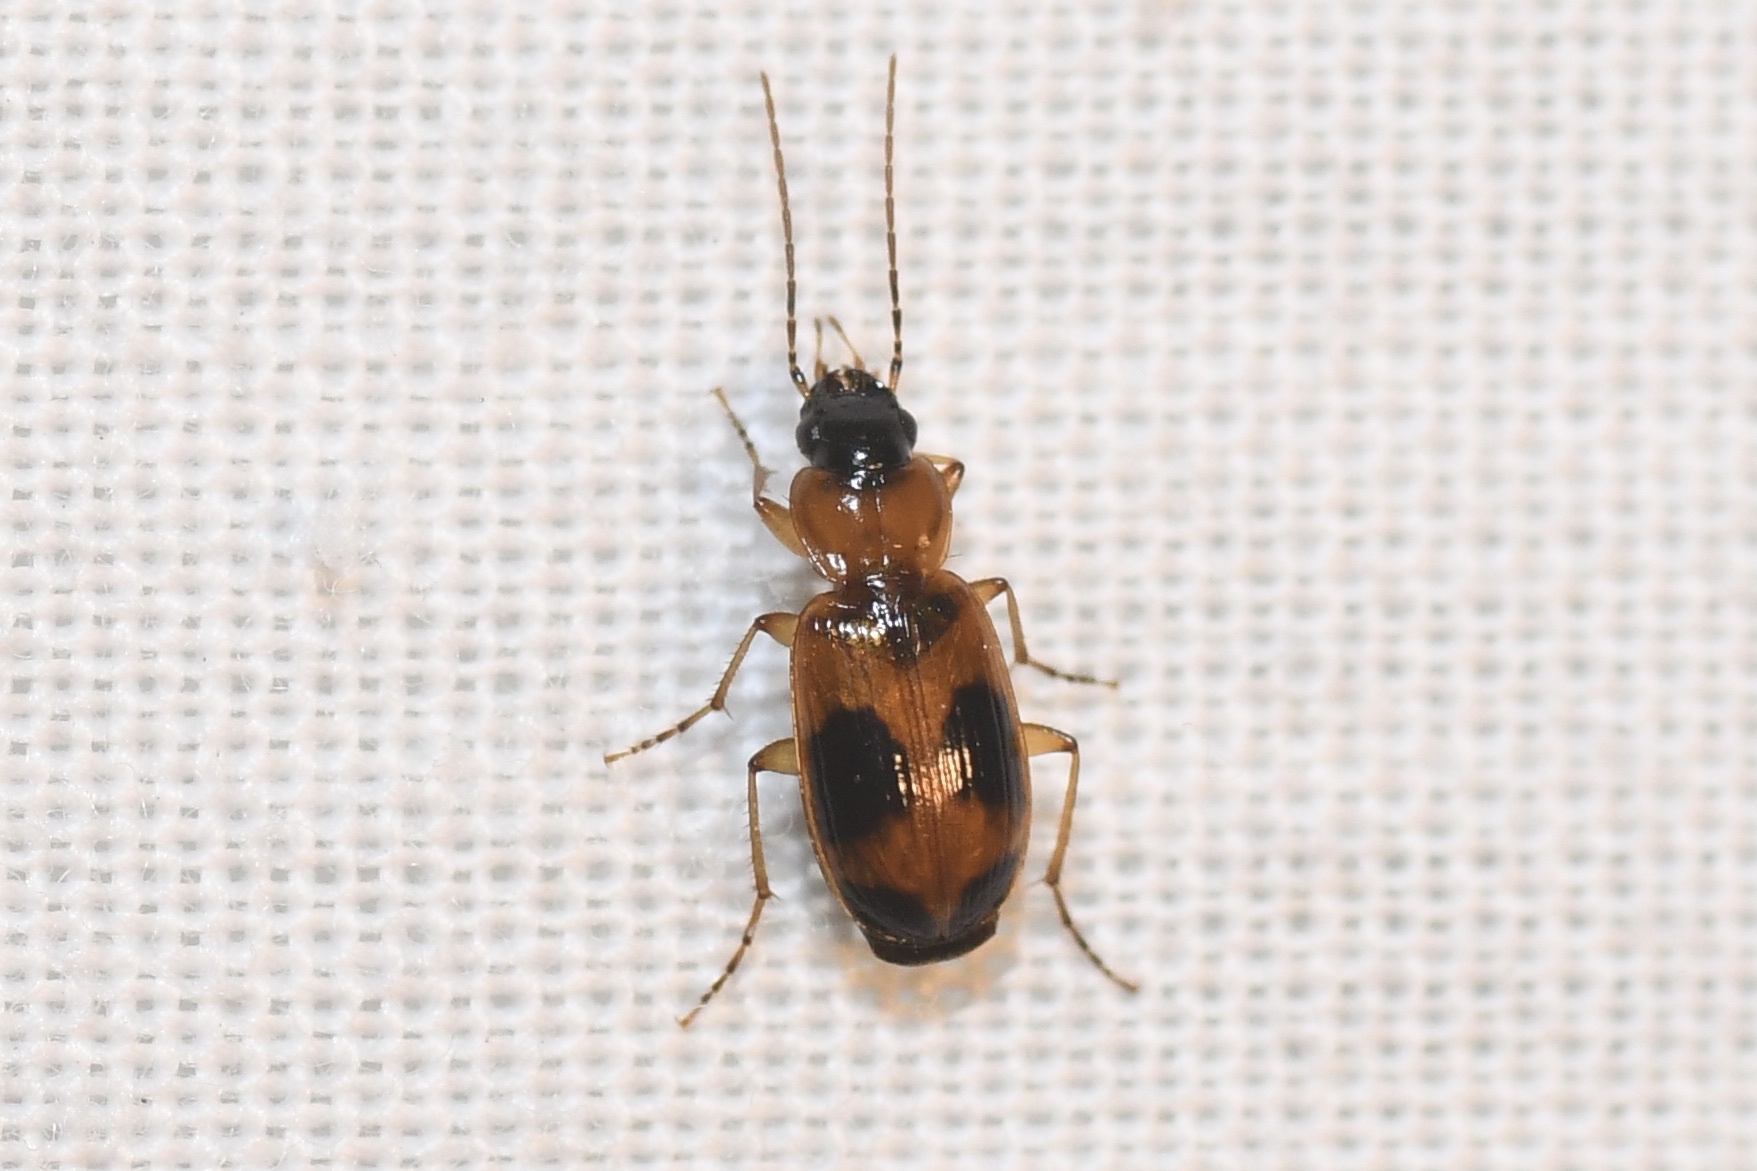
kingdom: Animalia
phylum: Arthropoda
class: Insecta
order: Coleoptera
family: Carabidae
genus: Badister
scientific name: Badister neopulchellus
